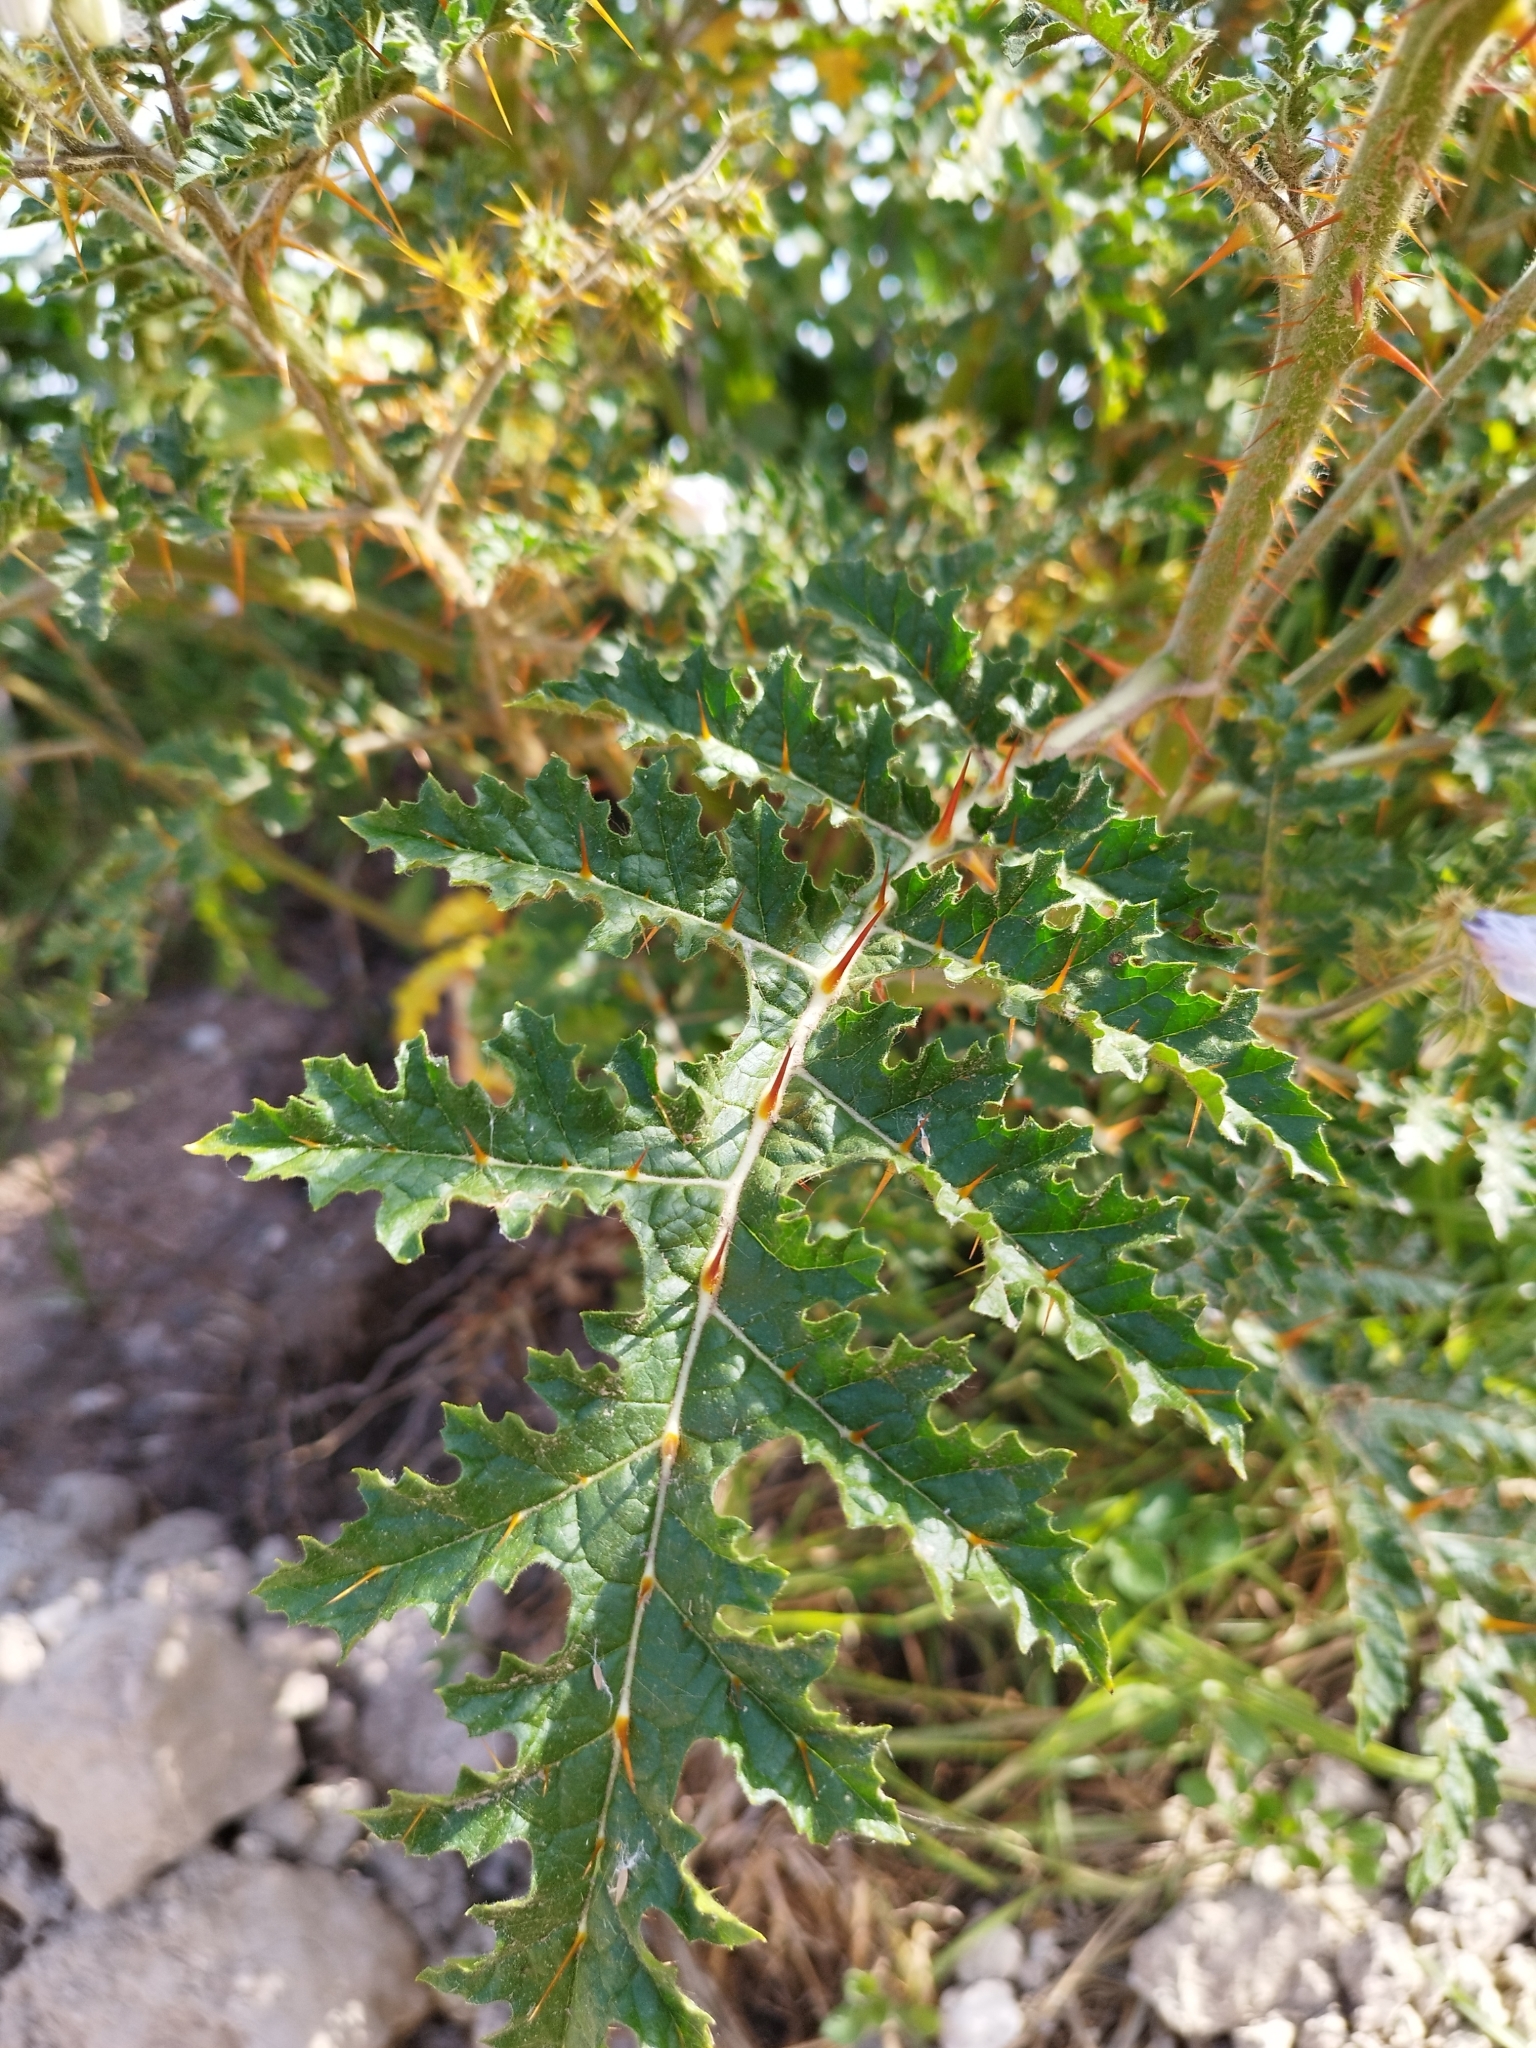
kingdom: Plantae
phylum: Tracheophyta
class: Magnoliopsida
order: Solanales
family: Solanaceae
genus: Solanum
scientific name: Solanum sisymbriifolium
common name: Red buffalo-bur
